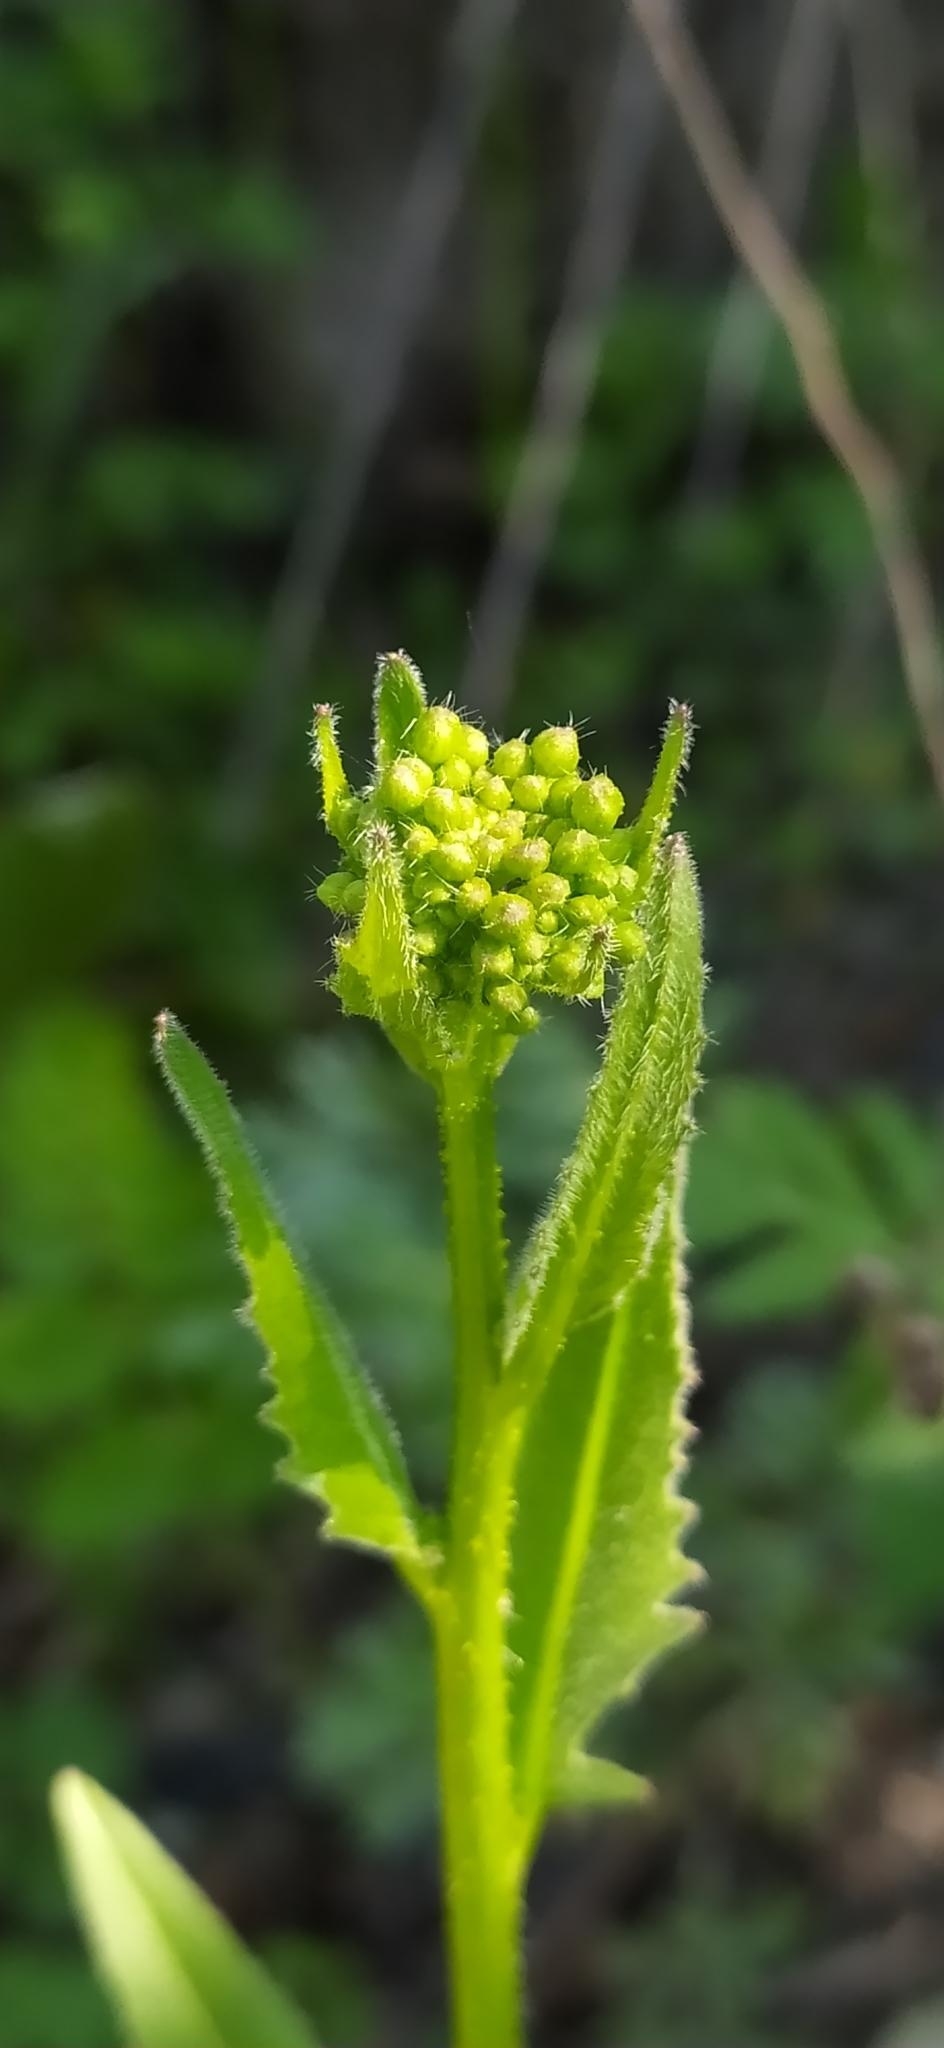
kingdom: Plantae
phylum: Tracheophyta
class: Magnoliopsida
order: Brassicales
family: Brassicaceae
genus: Bunias
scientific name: Bunias orientalis
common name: Warty-cabbage
